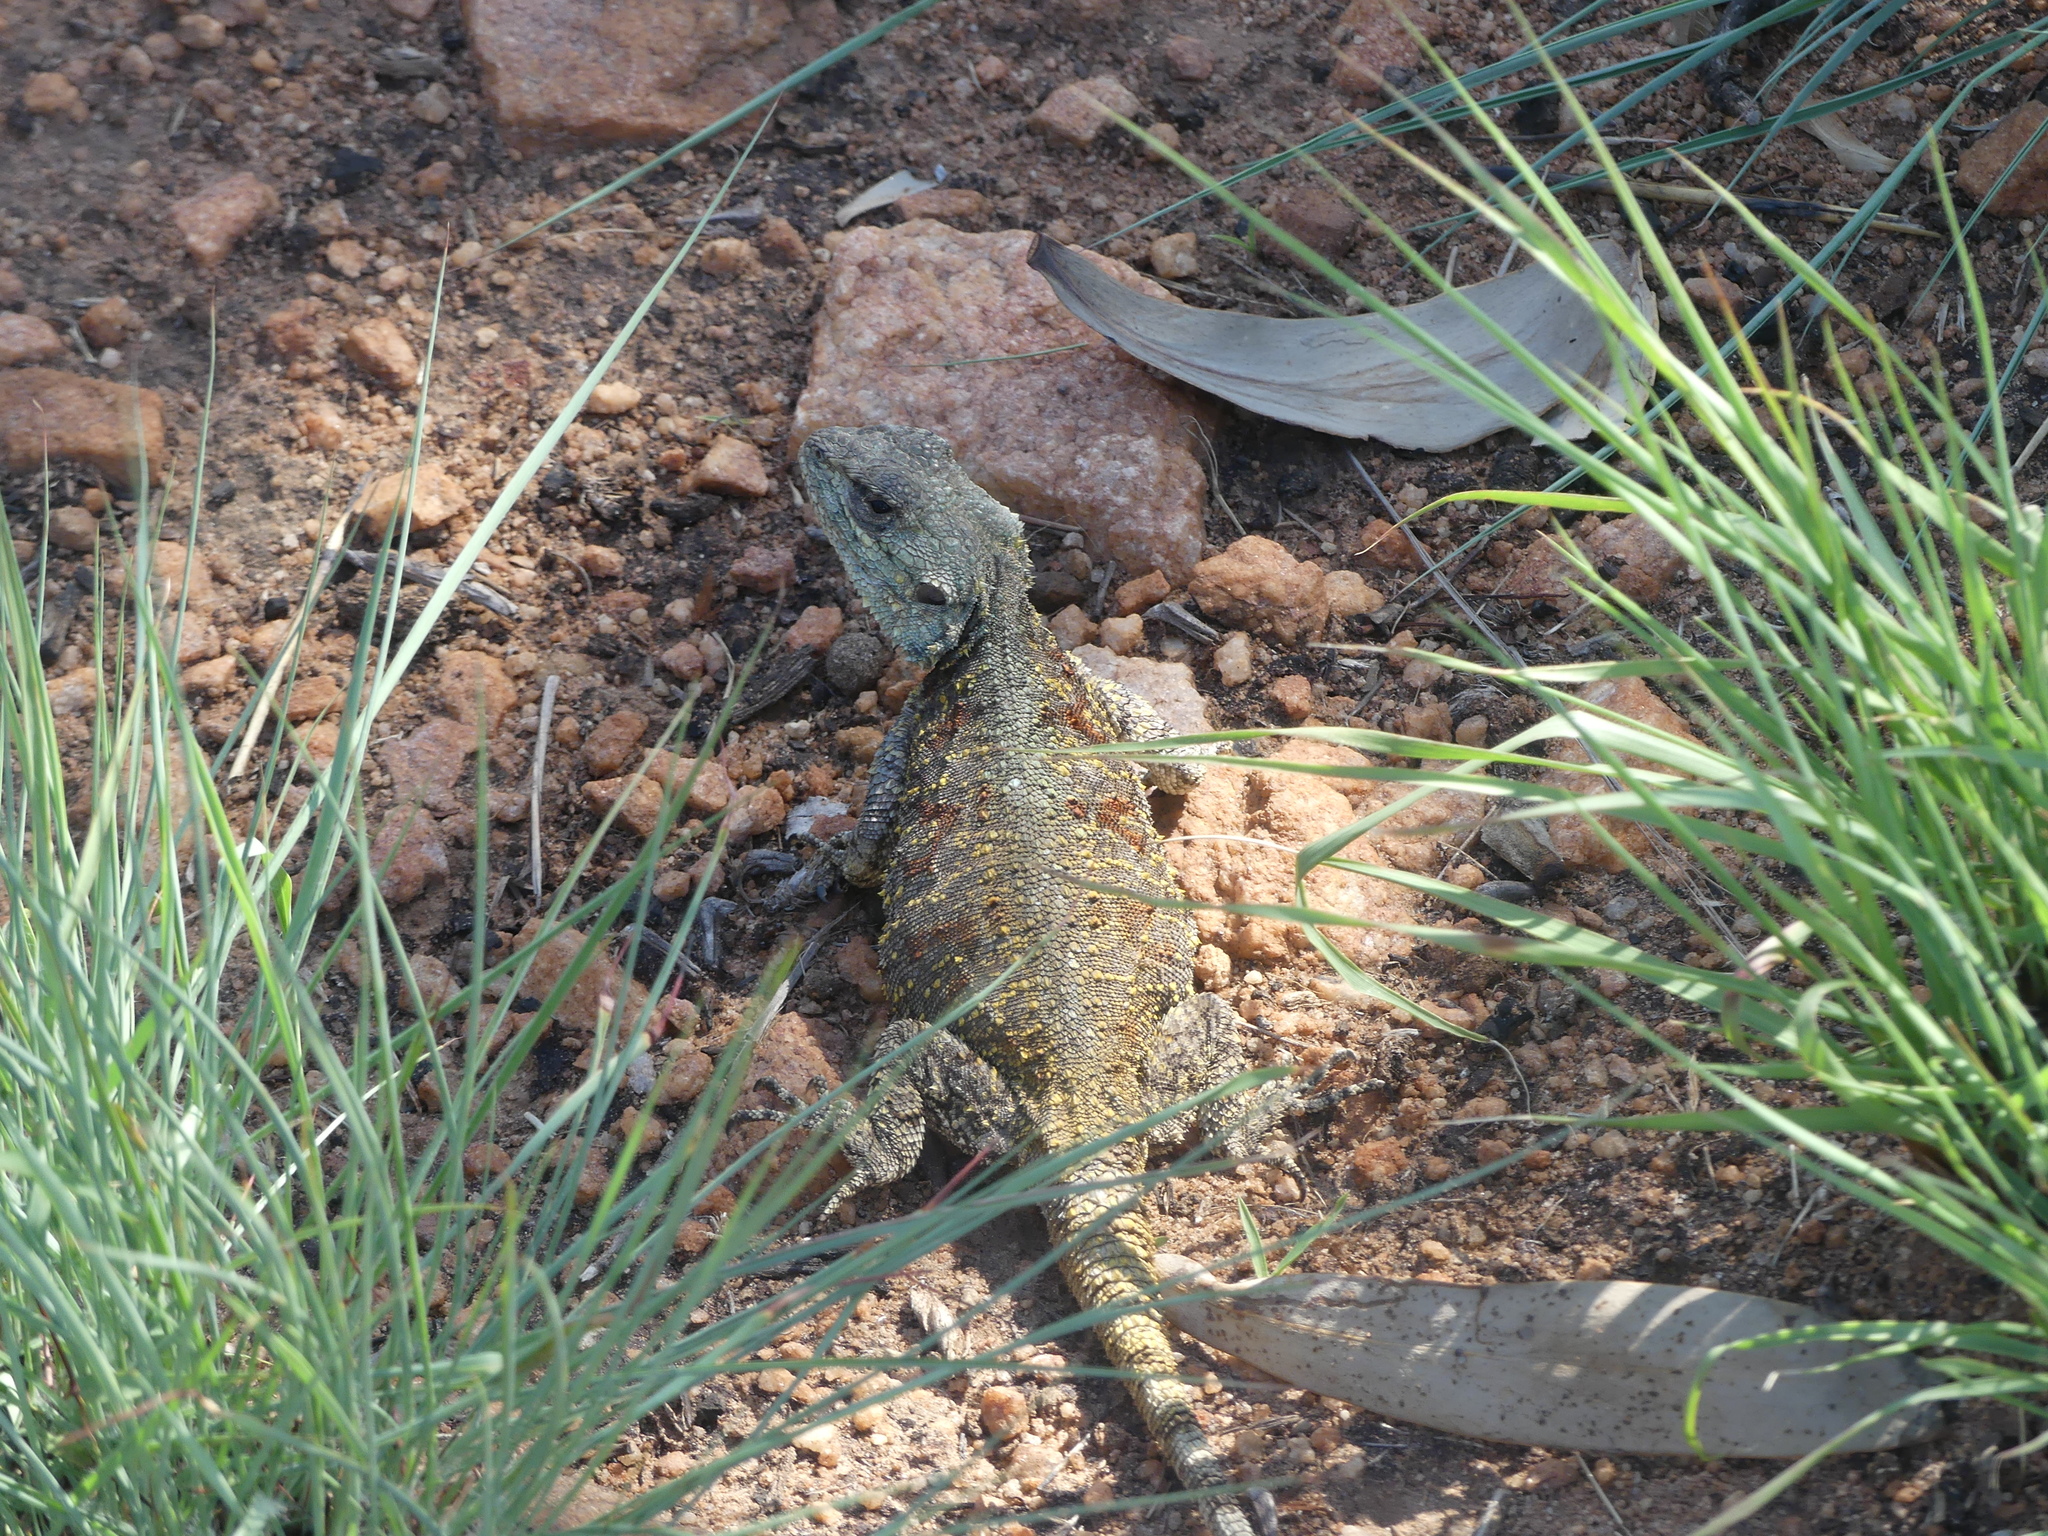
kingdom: Animalia
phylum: Chordata
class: Squamata
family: Agamidae
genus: Acanthocercus
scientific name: Acanthocercus atricollis
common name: Southern tree agama
